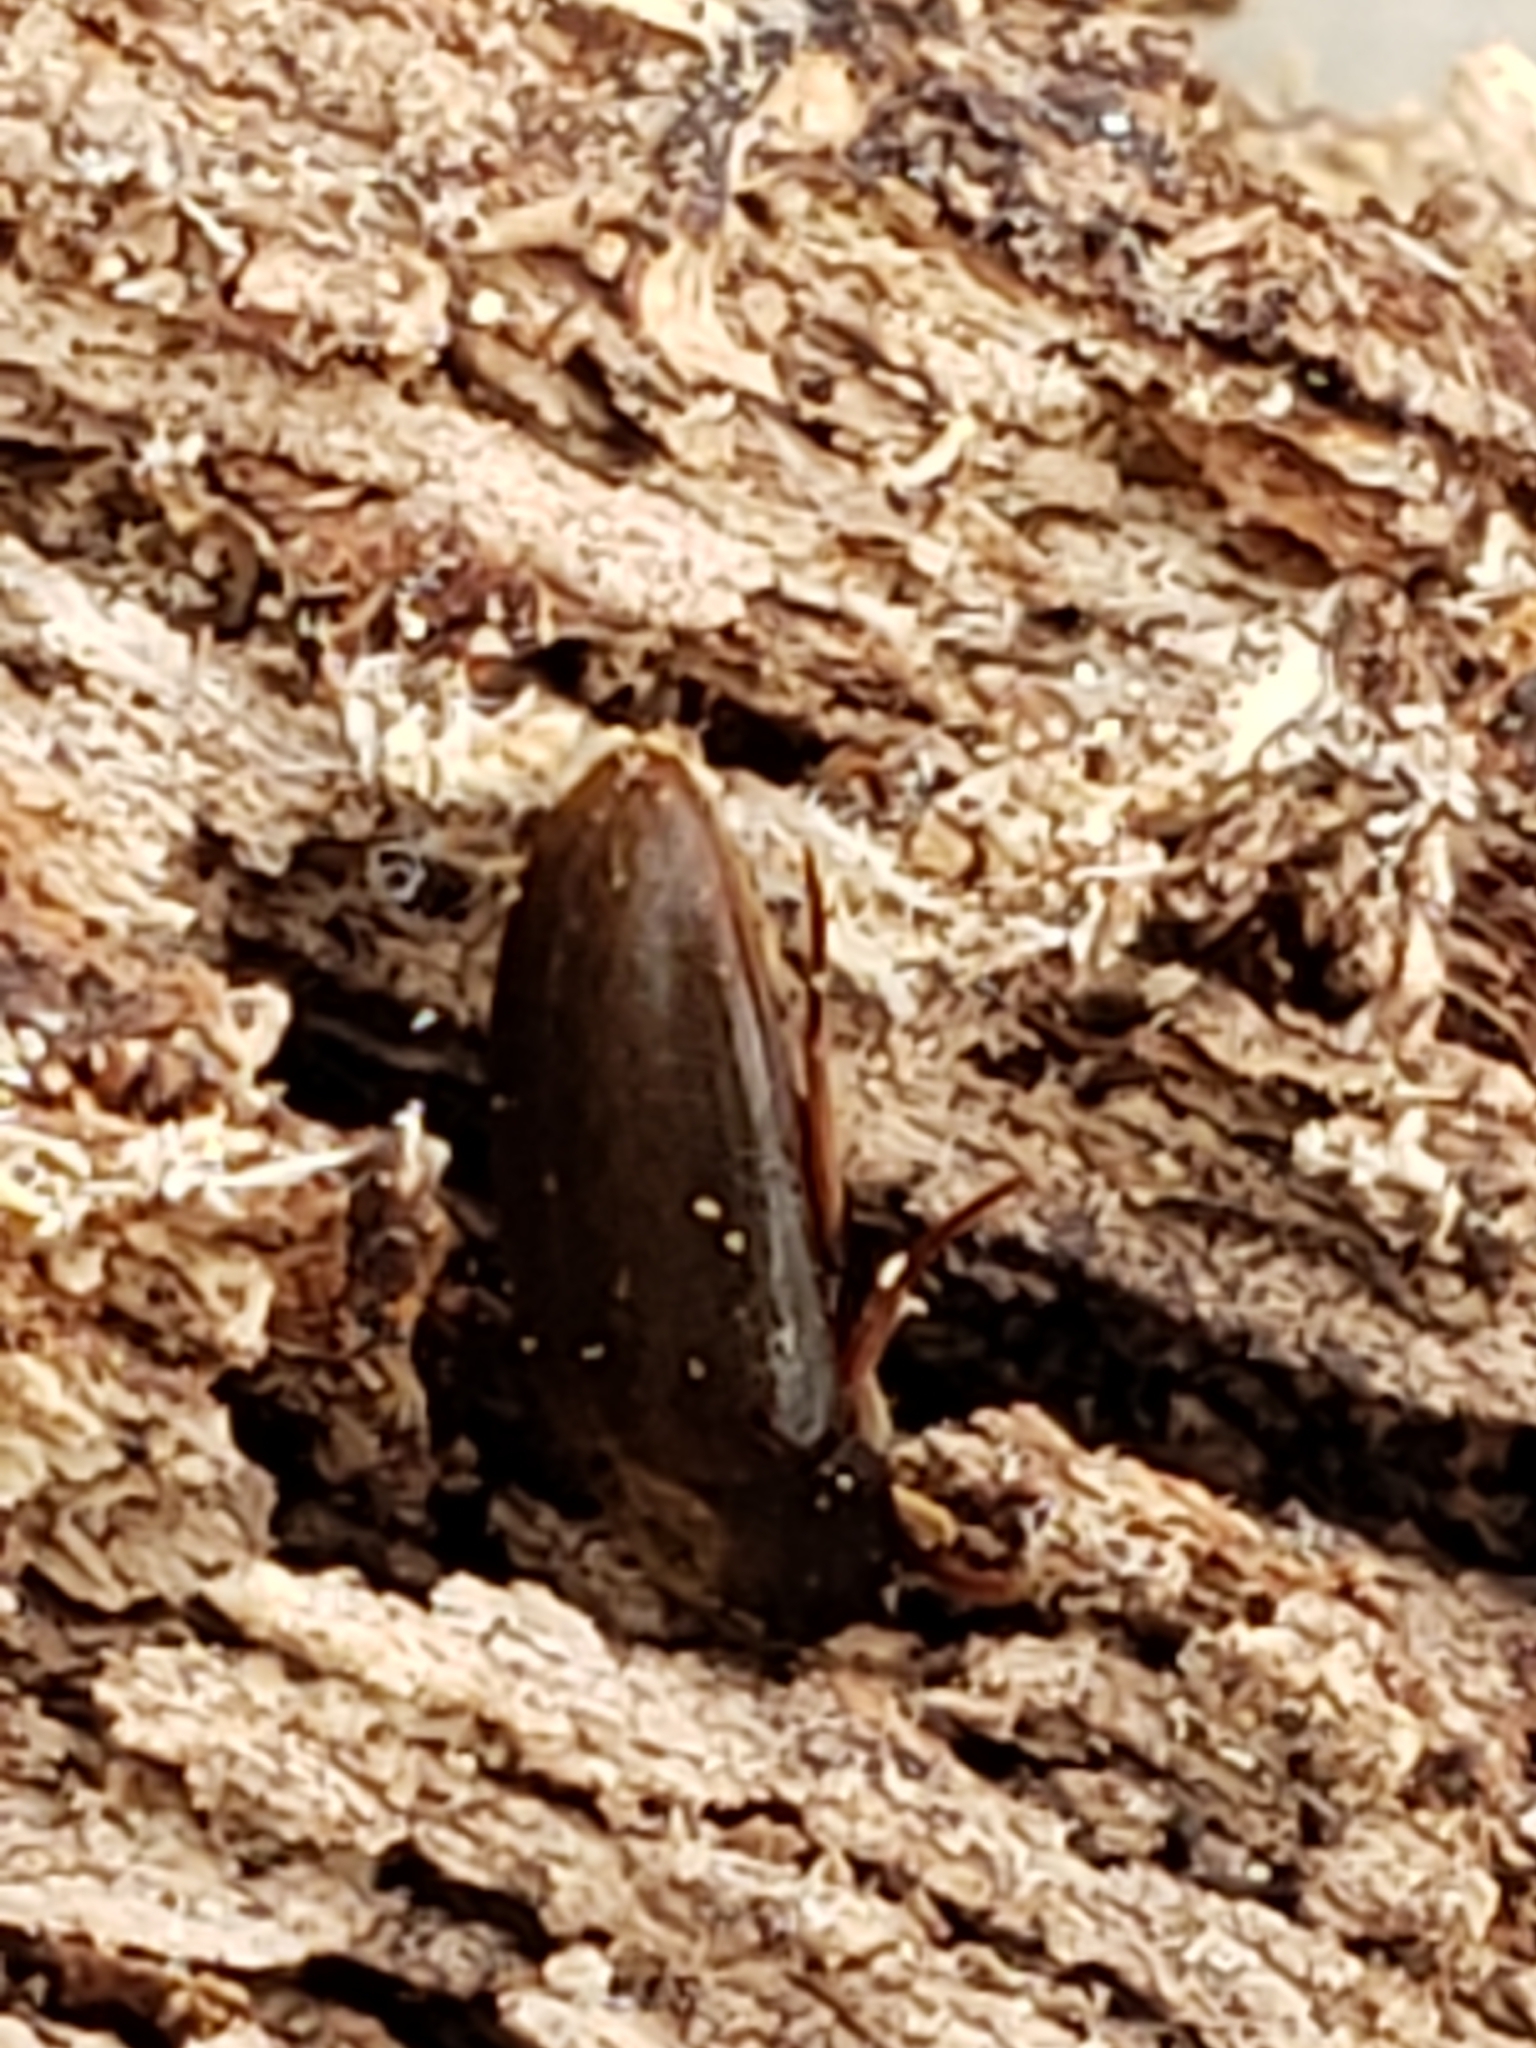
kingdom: Animalia
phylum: Arthropoda
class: Insecta
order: Coleoptera
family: Tetratomidae
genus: Eustrophus
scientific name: Eustrophus tomentosus
